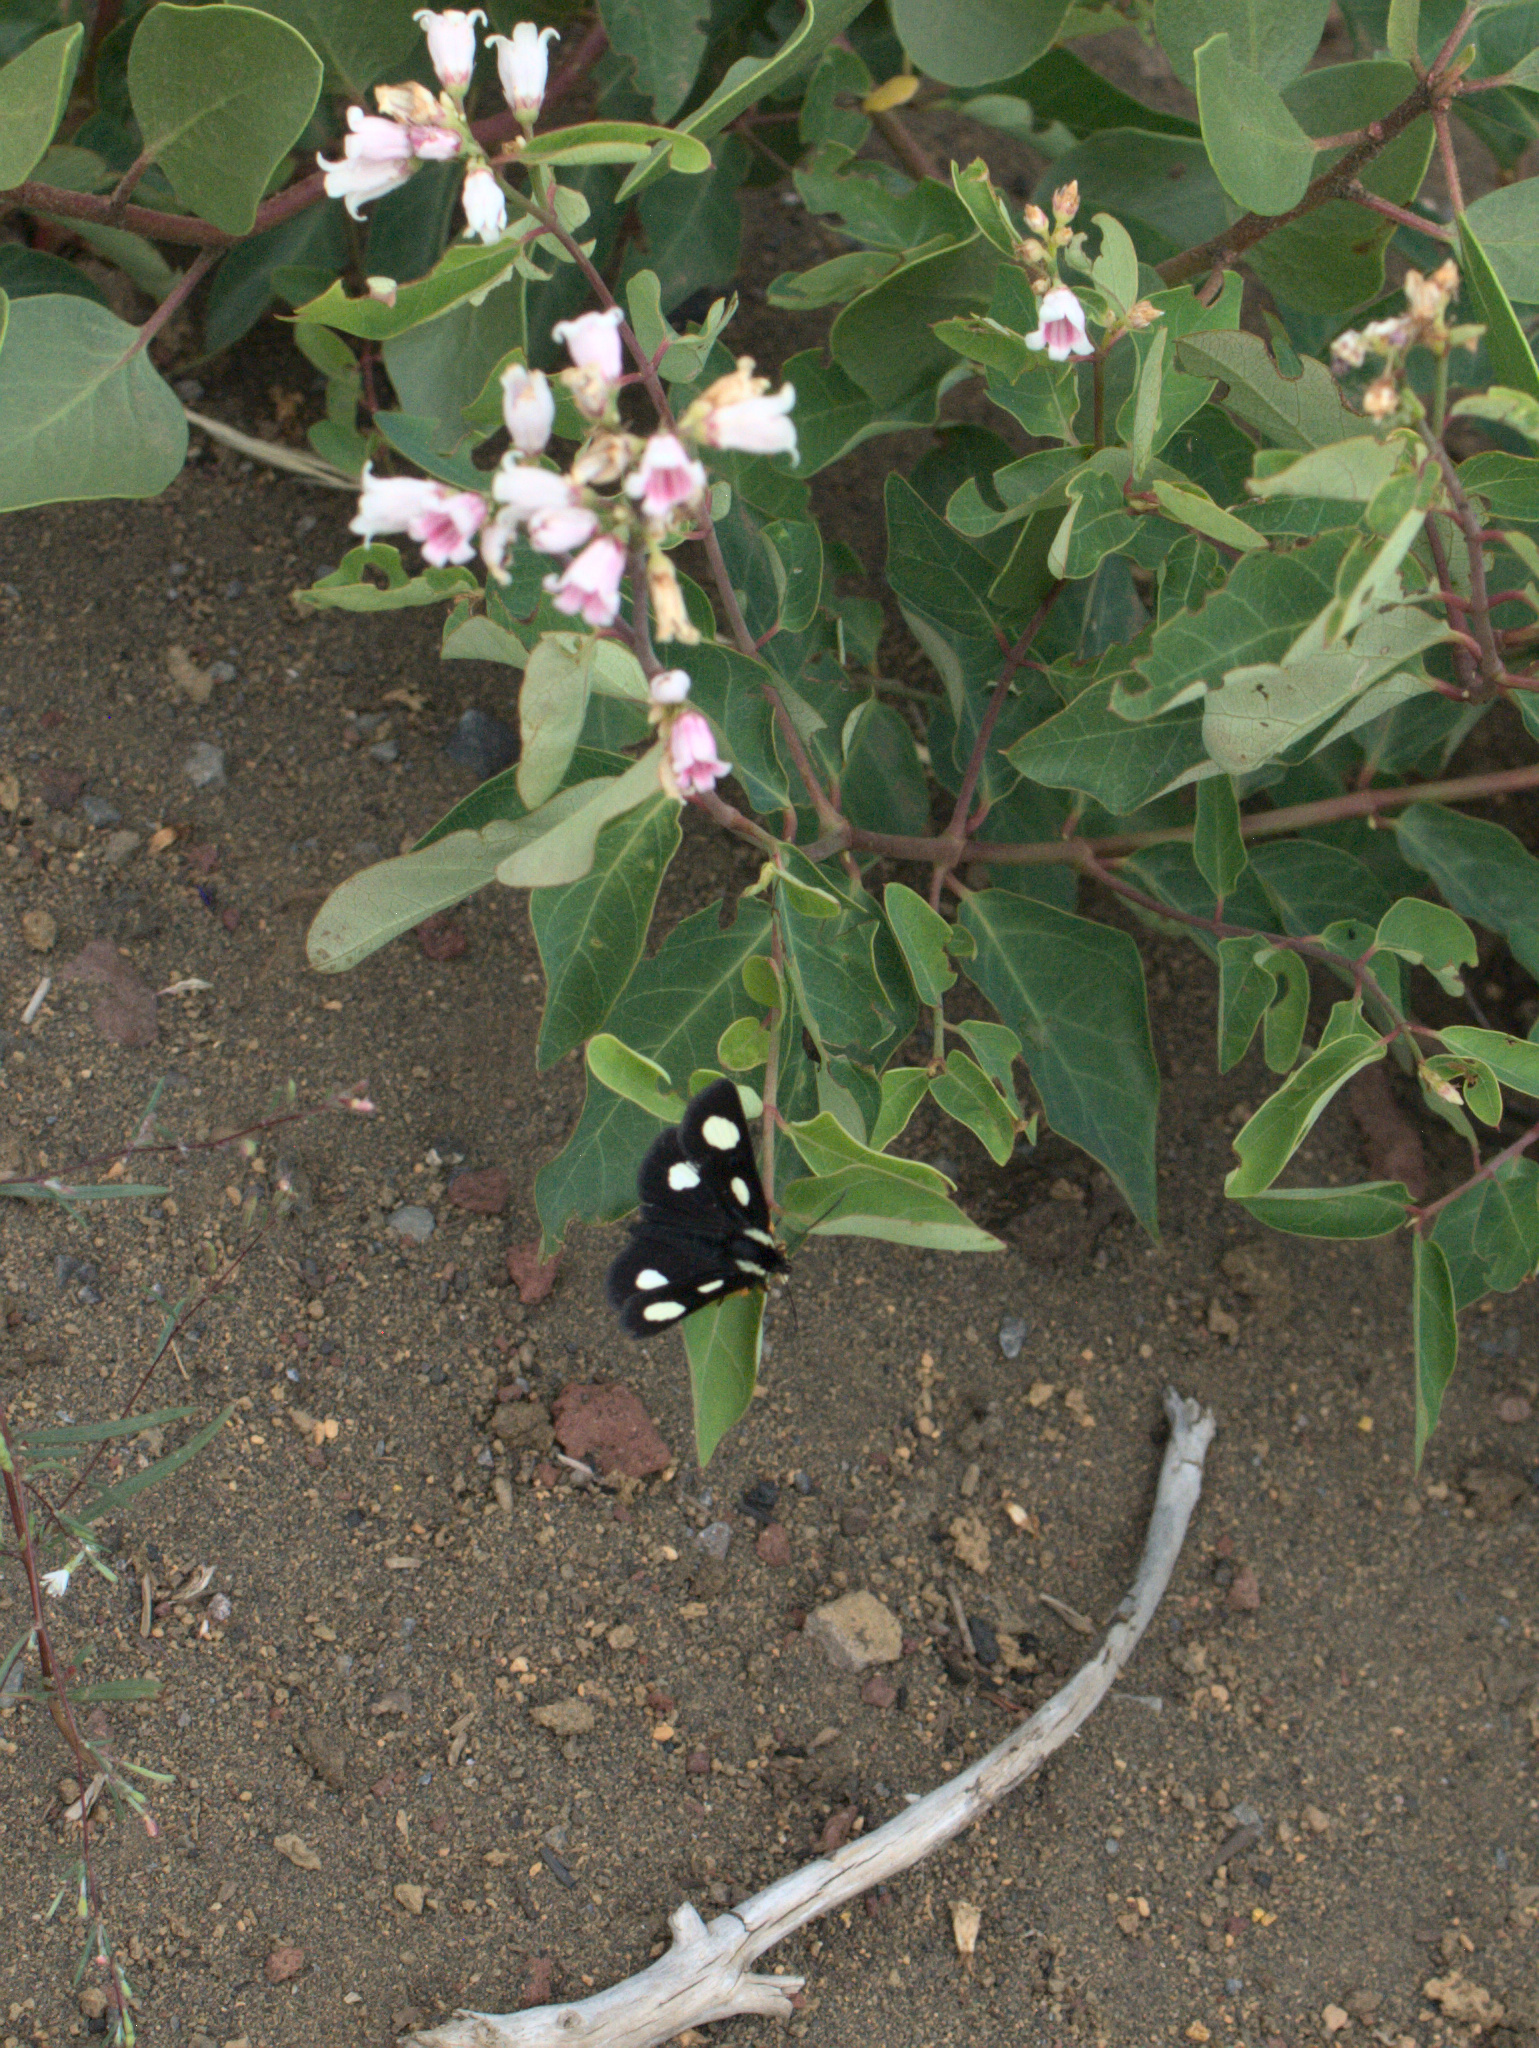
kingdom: Animalia
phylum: Arthropoda
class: Insecta
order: Lepidoptera
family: Noctuidae
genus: Alypia
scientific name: Alypia langtonii
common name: Fireweed caterpillar
